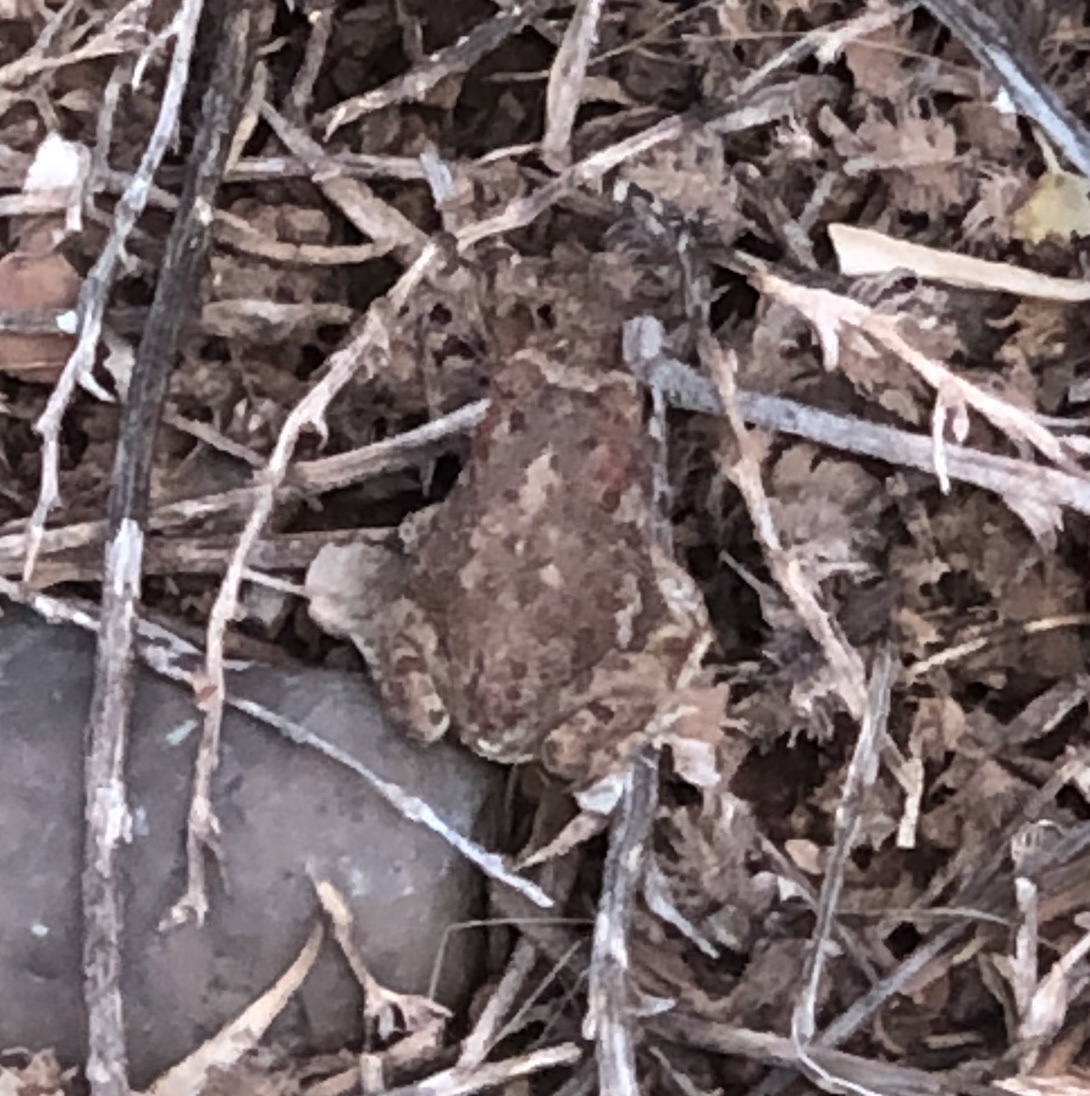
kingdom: Animalia
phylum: Chordata
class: Amphibia
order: Anura
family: Bufonidae
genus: Anaxyrus
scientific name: Anaxyrus microscaphus
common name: Arizona toad
